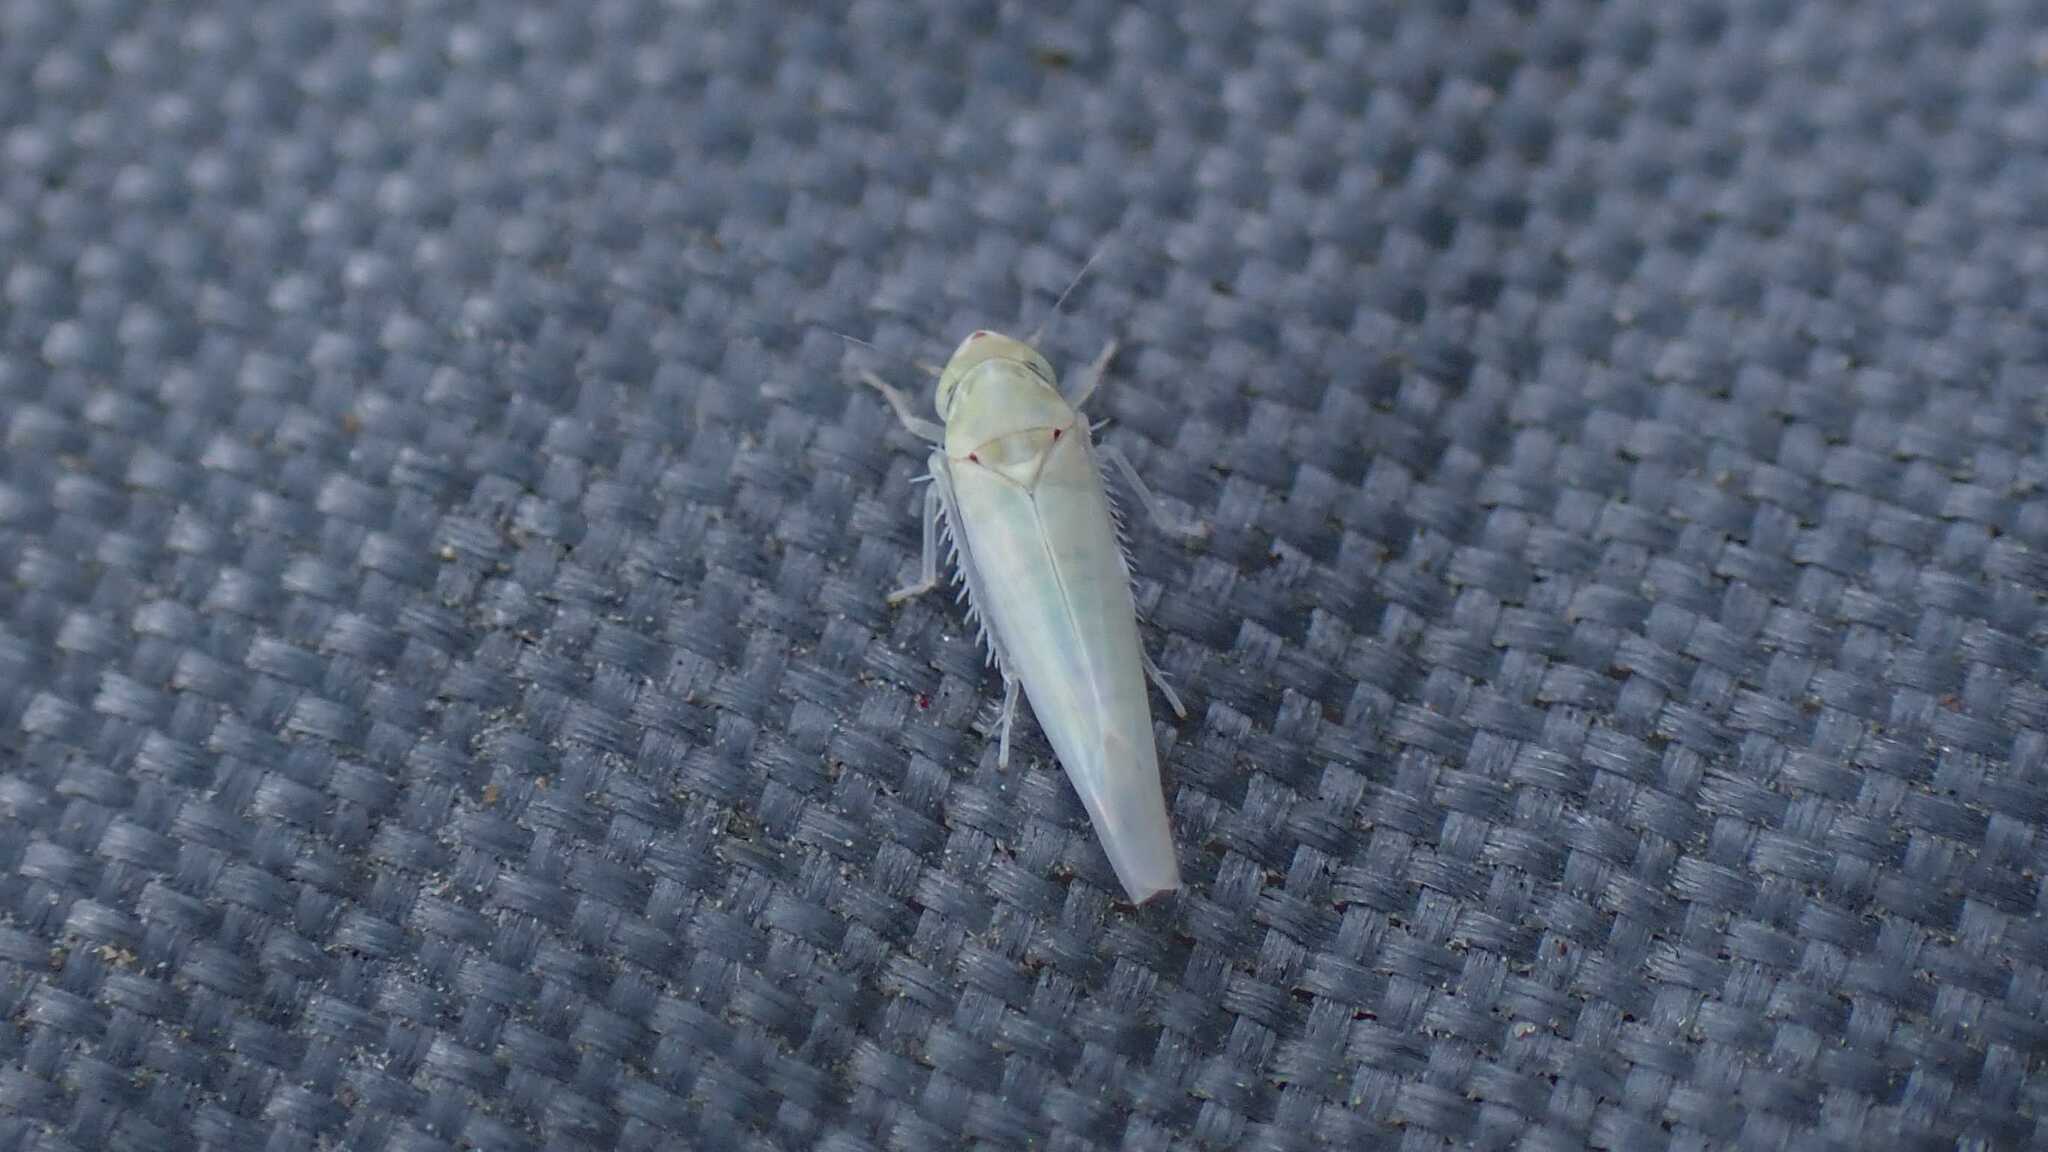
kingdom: Animalia
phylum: Arthropoda
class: Insecta
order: Hemiptera
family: Cicadellidae
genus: Zygina
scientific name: Zygina nivea
